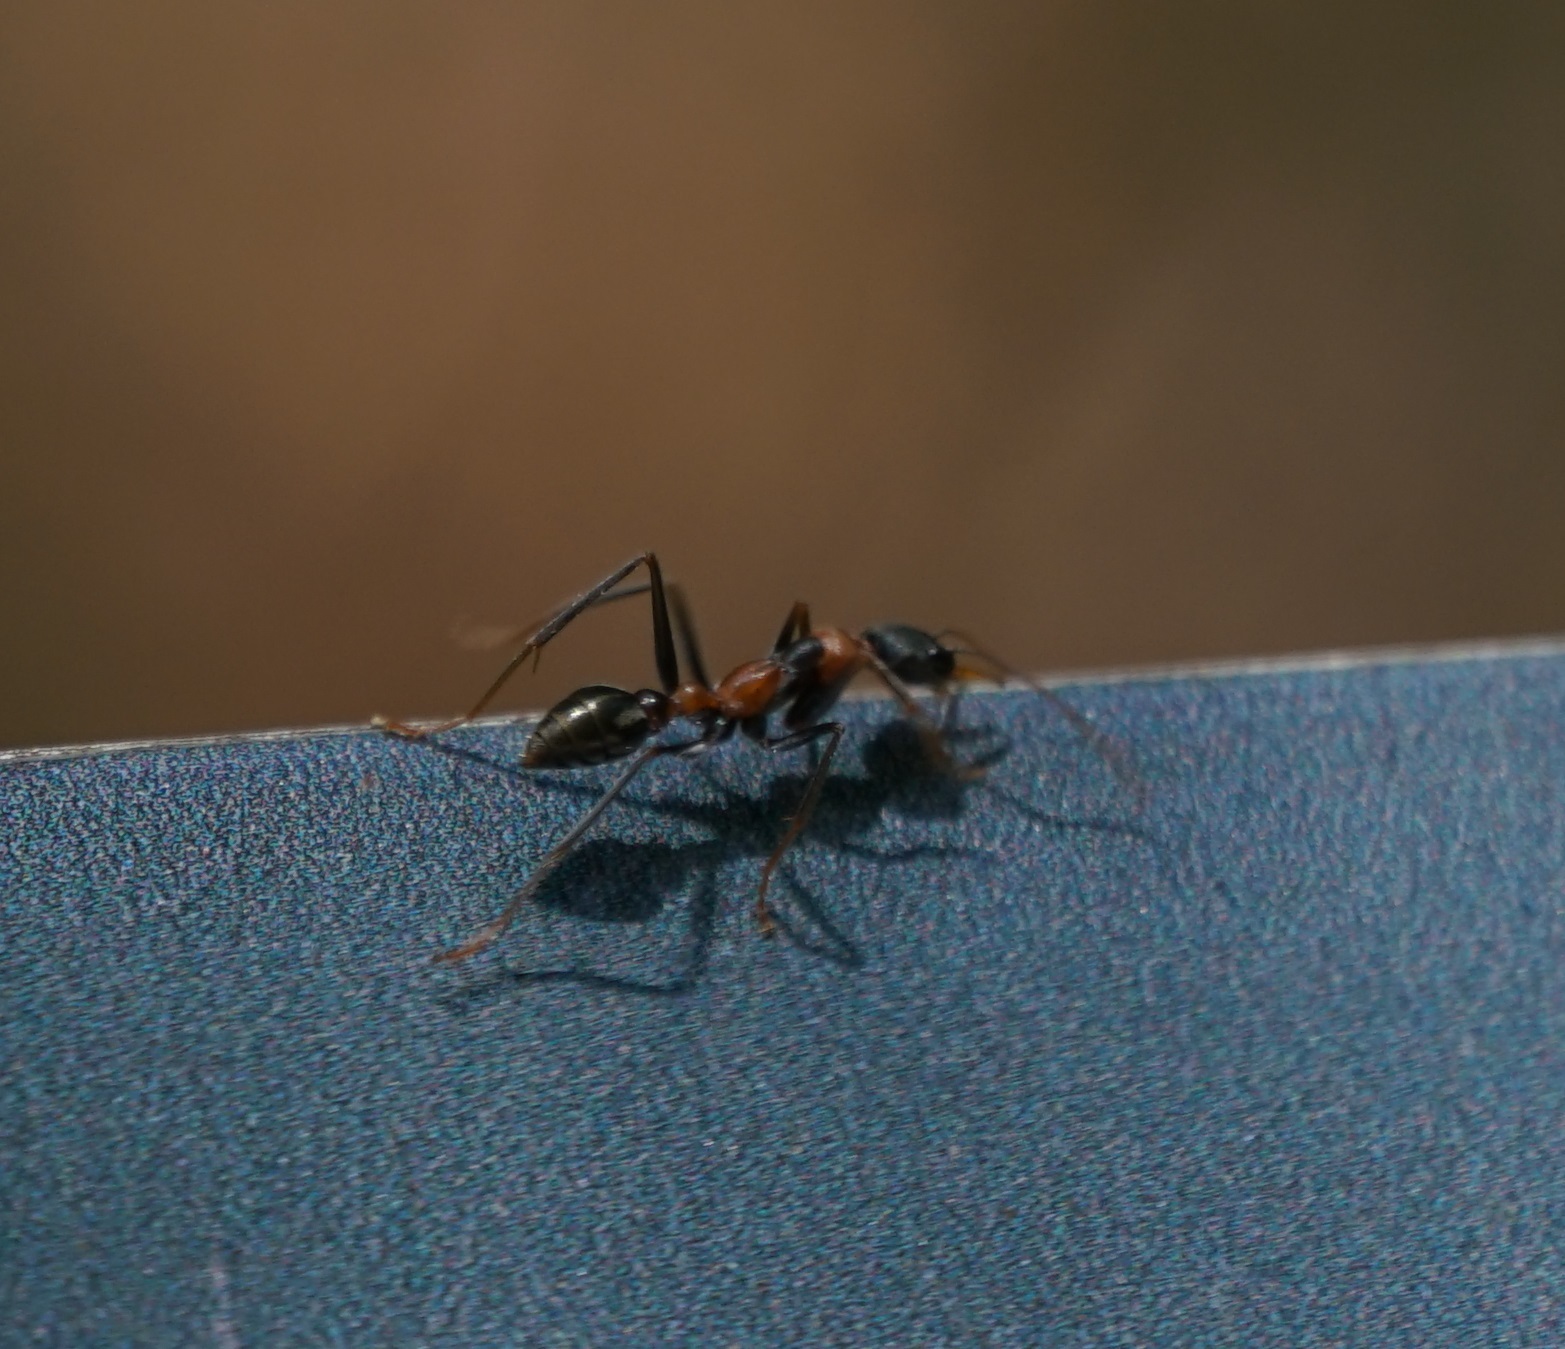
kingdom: Animalia
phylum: Arthropoda
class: Insecta
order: Hymenoptera
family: Formicidae
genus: Myrmecia
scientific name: Myrmecia nigrocincta
